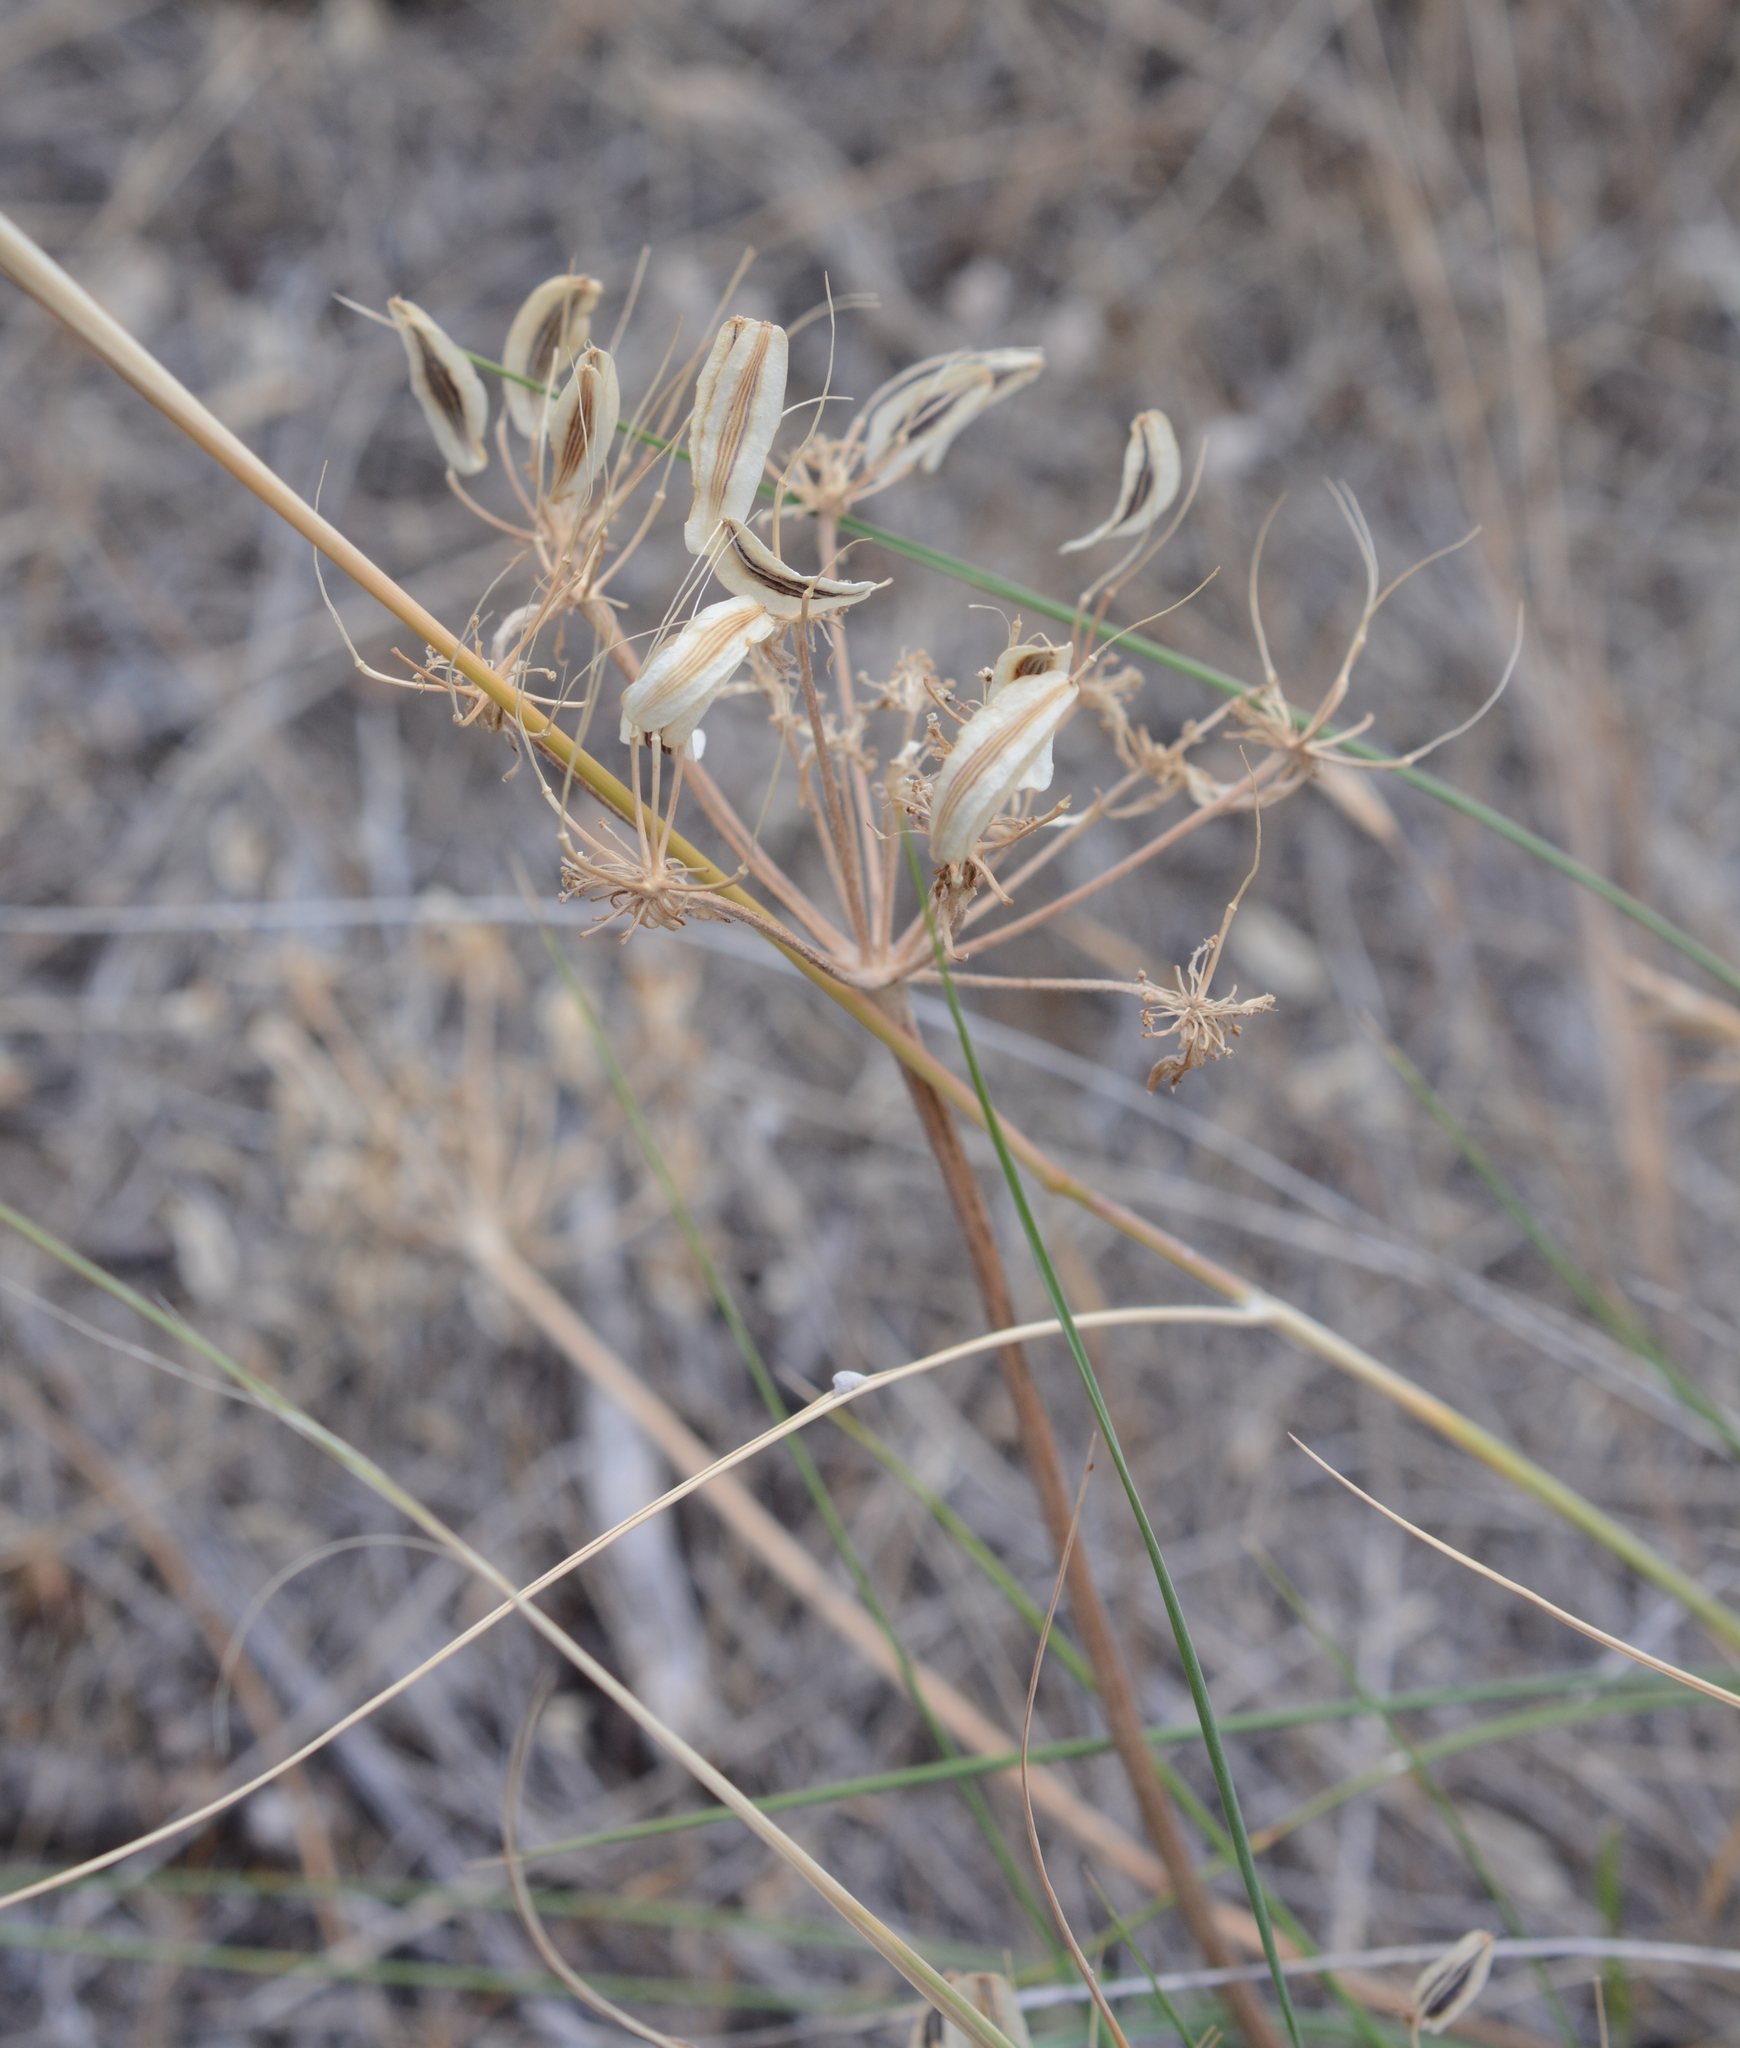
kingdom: Plantae
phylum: Tracheophyta
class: Magnoliopsida
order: Apiales
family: Apiaceae
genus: Lomatium
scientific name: Lomatium macrocarpum
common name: Big-seed biscuitroot
